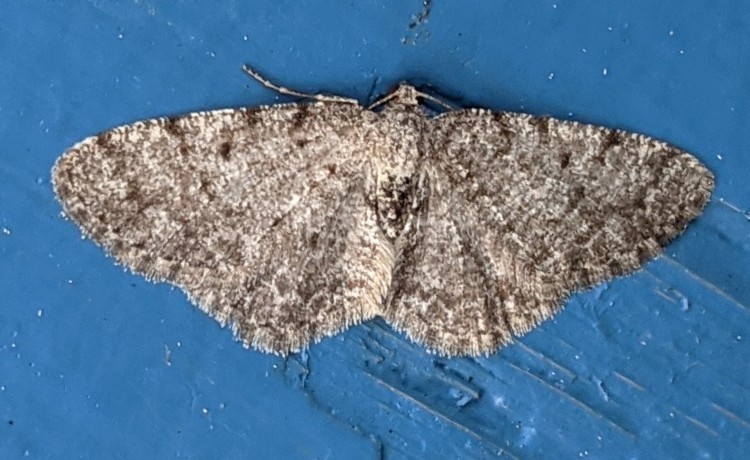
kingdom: Animalia
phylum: Arthropoda
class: Insecta
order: Lepidoptera
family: Geometridae
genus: Aethalura
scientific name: Aethalura intertexta
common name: Four-barred gray
